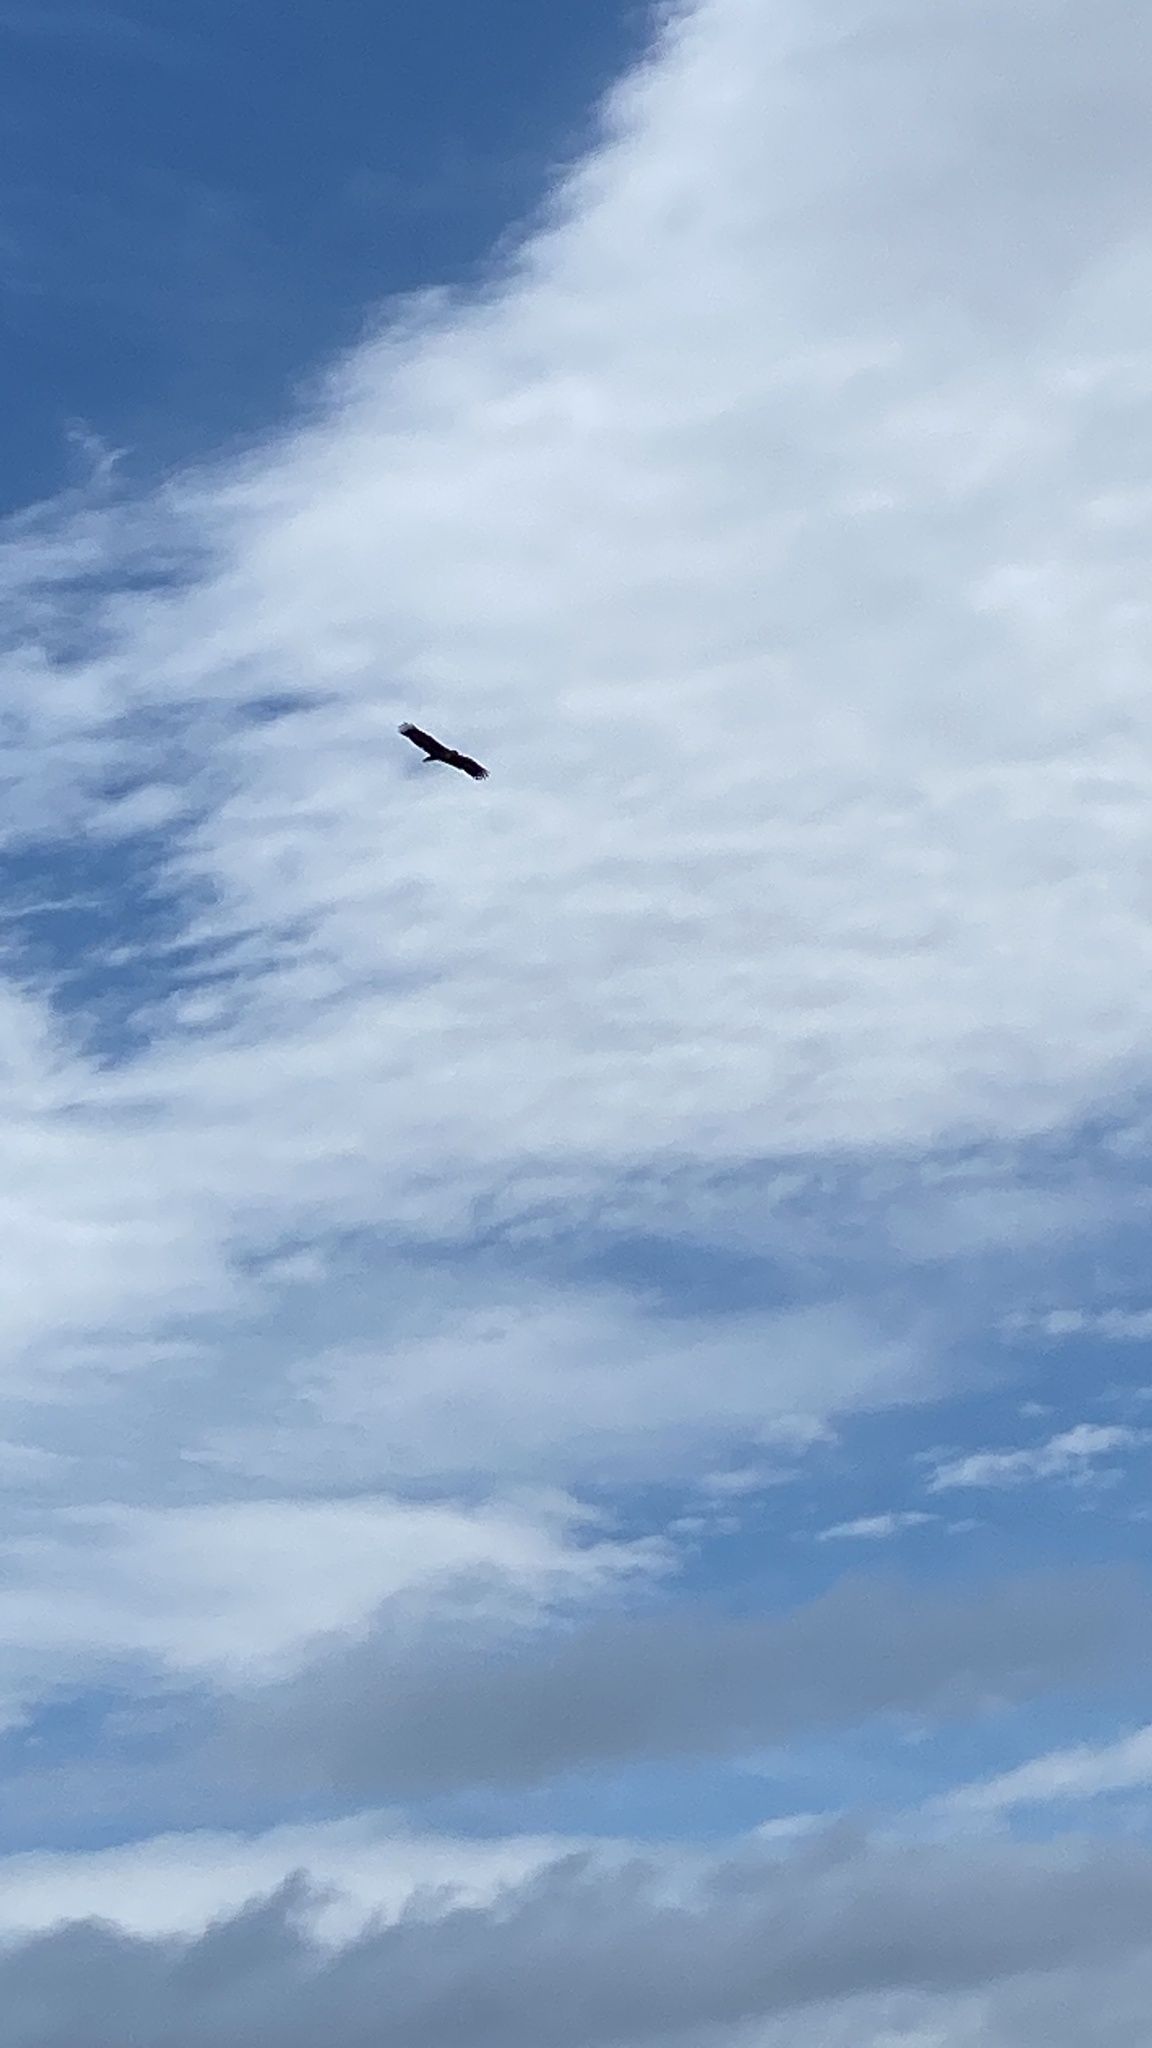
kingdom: Animalia
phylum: Chordata
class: Aves
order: Accipitriformes
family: Accipitridae
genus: Haliaeetus
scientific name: Haliaeetus albicilla
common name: White-tailed eagle
